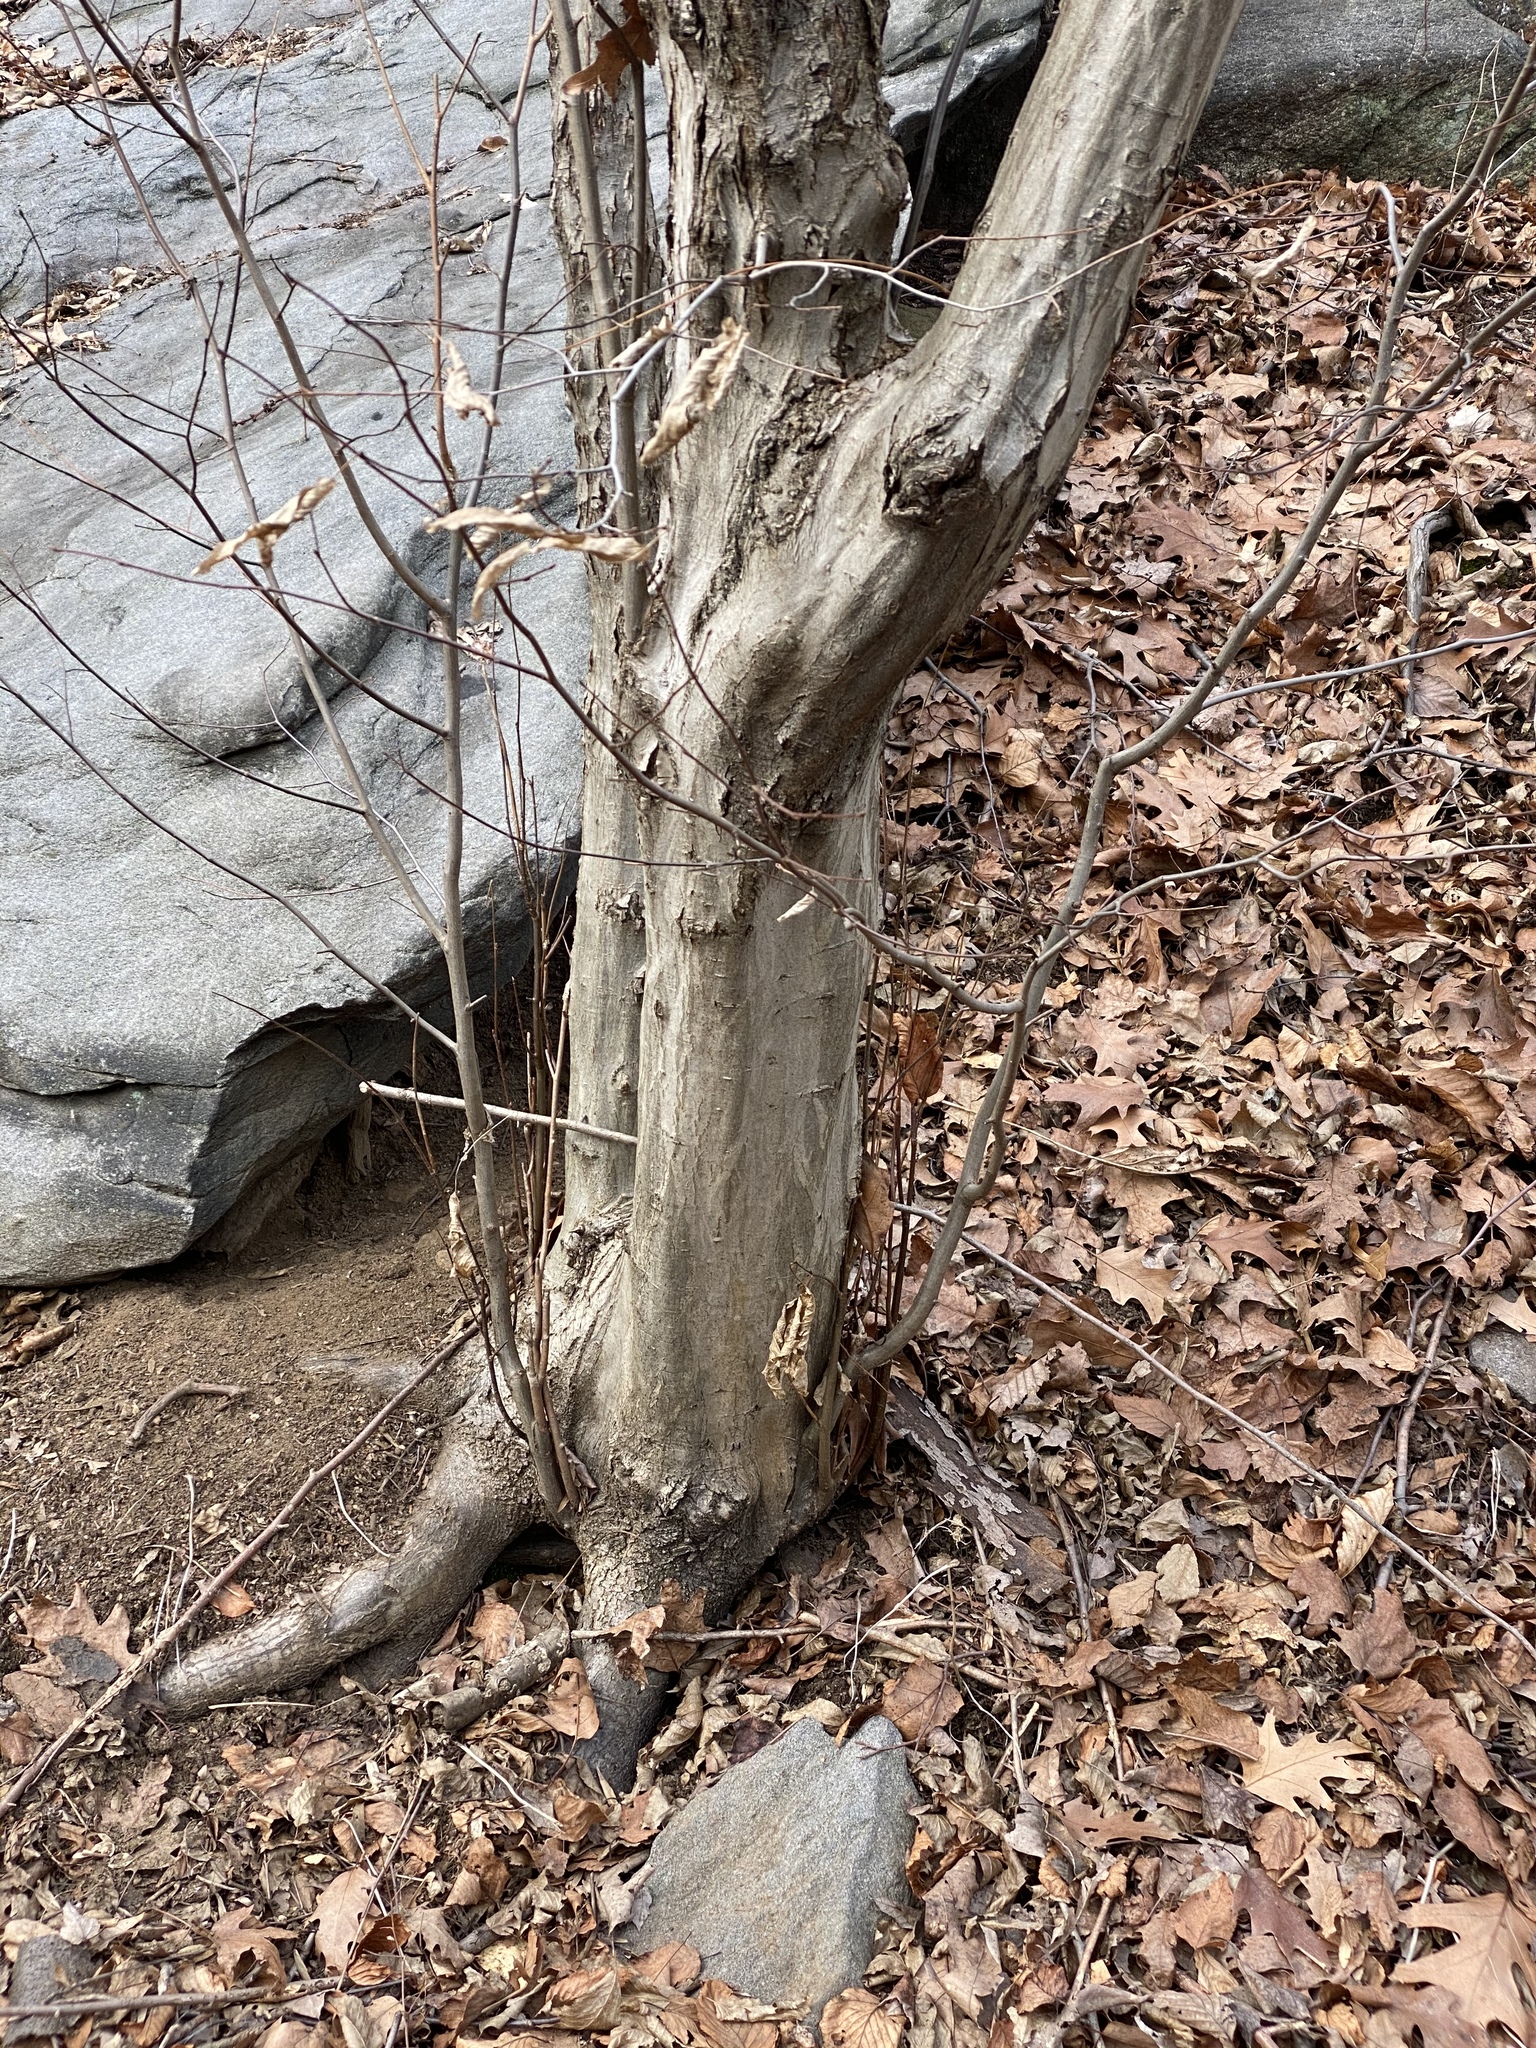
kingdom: Plantae
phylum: Tracheophyta
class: Magnoliopsida
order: Fagales
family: Betulaceae
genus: Carpinus
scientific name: Carpinus caroliniana
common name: American hornbeam
